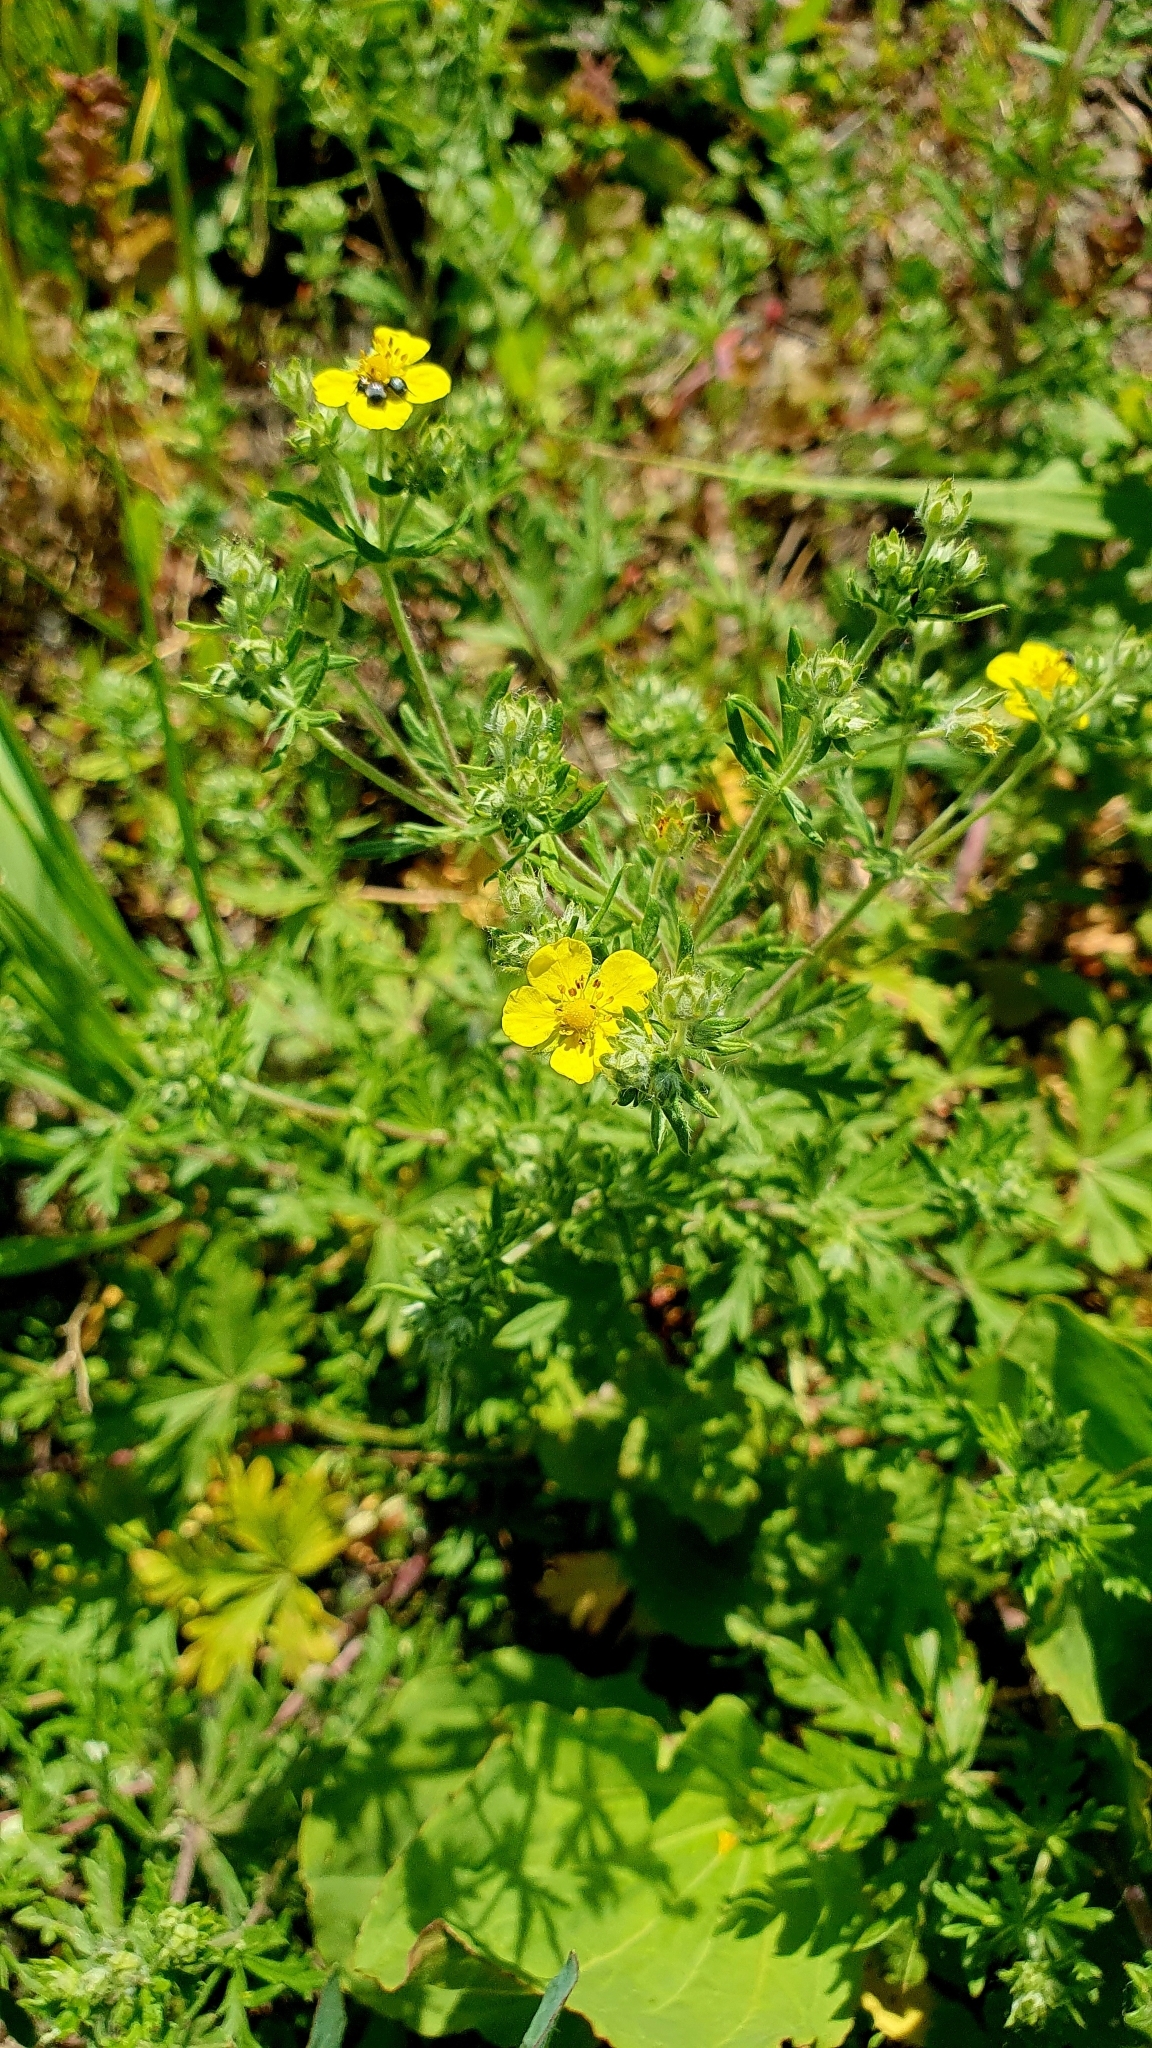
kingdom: Plantae
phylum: Tracheophyta
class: Magnoliopsida
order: Rosales
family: Rosaceae
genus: Potentilla
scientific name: Potentilla argentea
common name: Hoary cinquefoil
